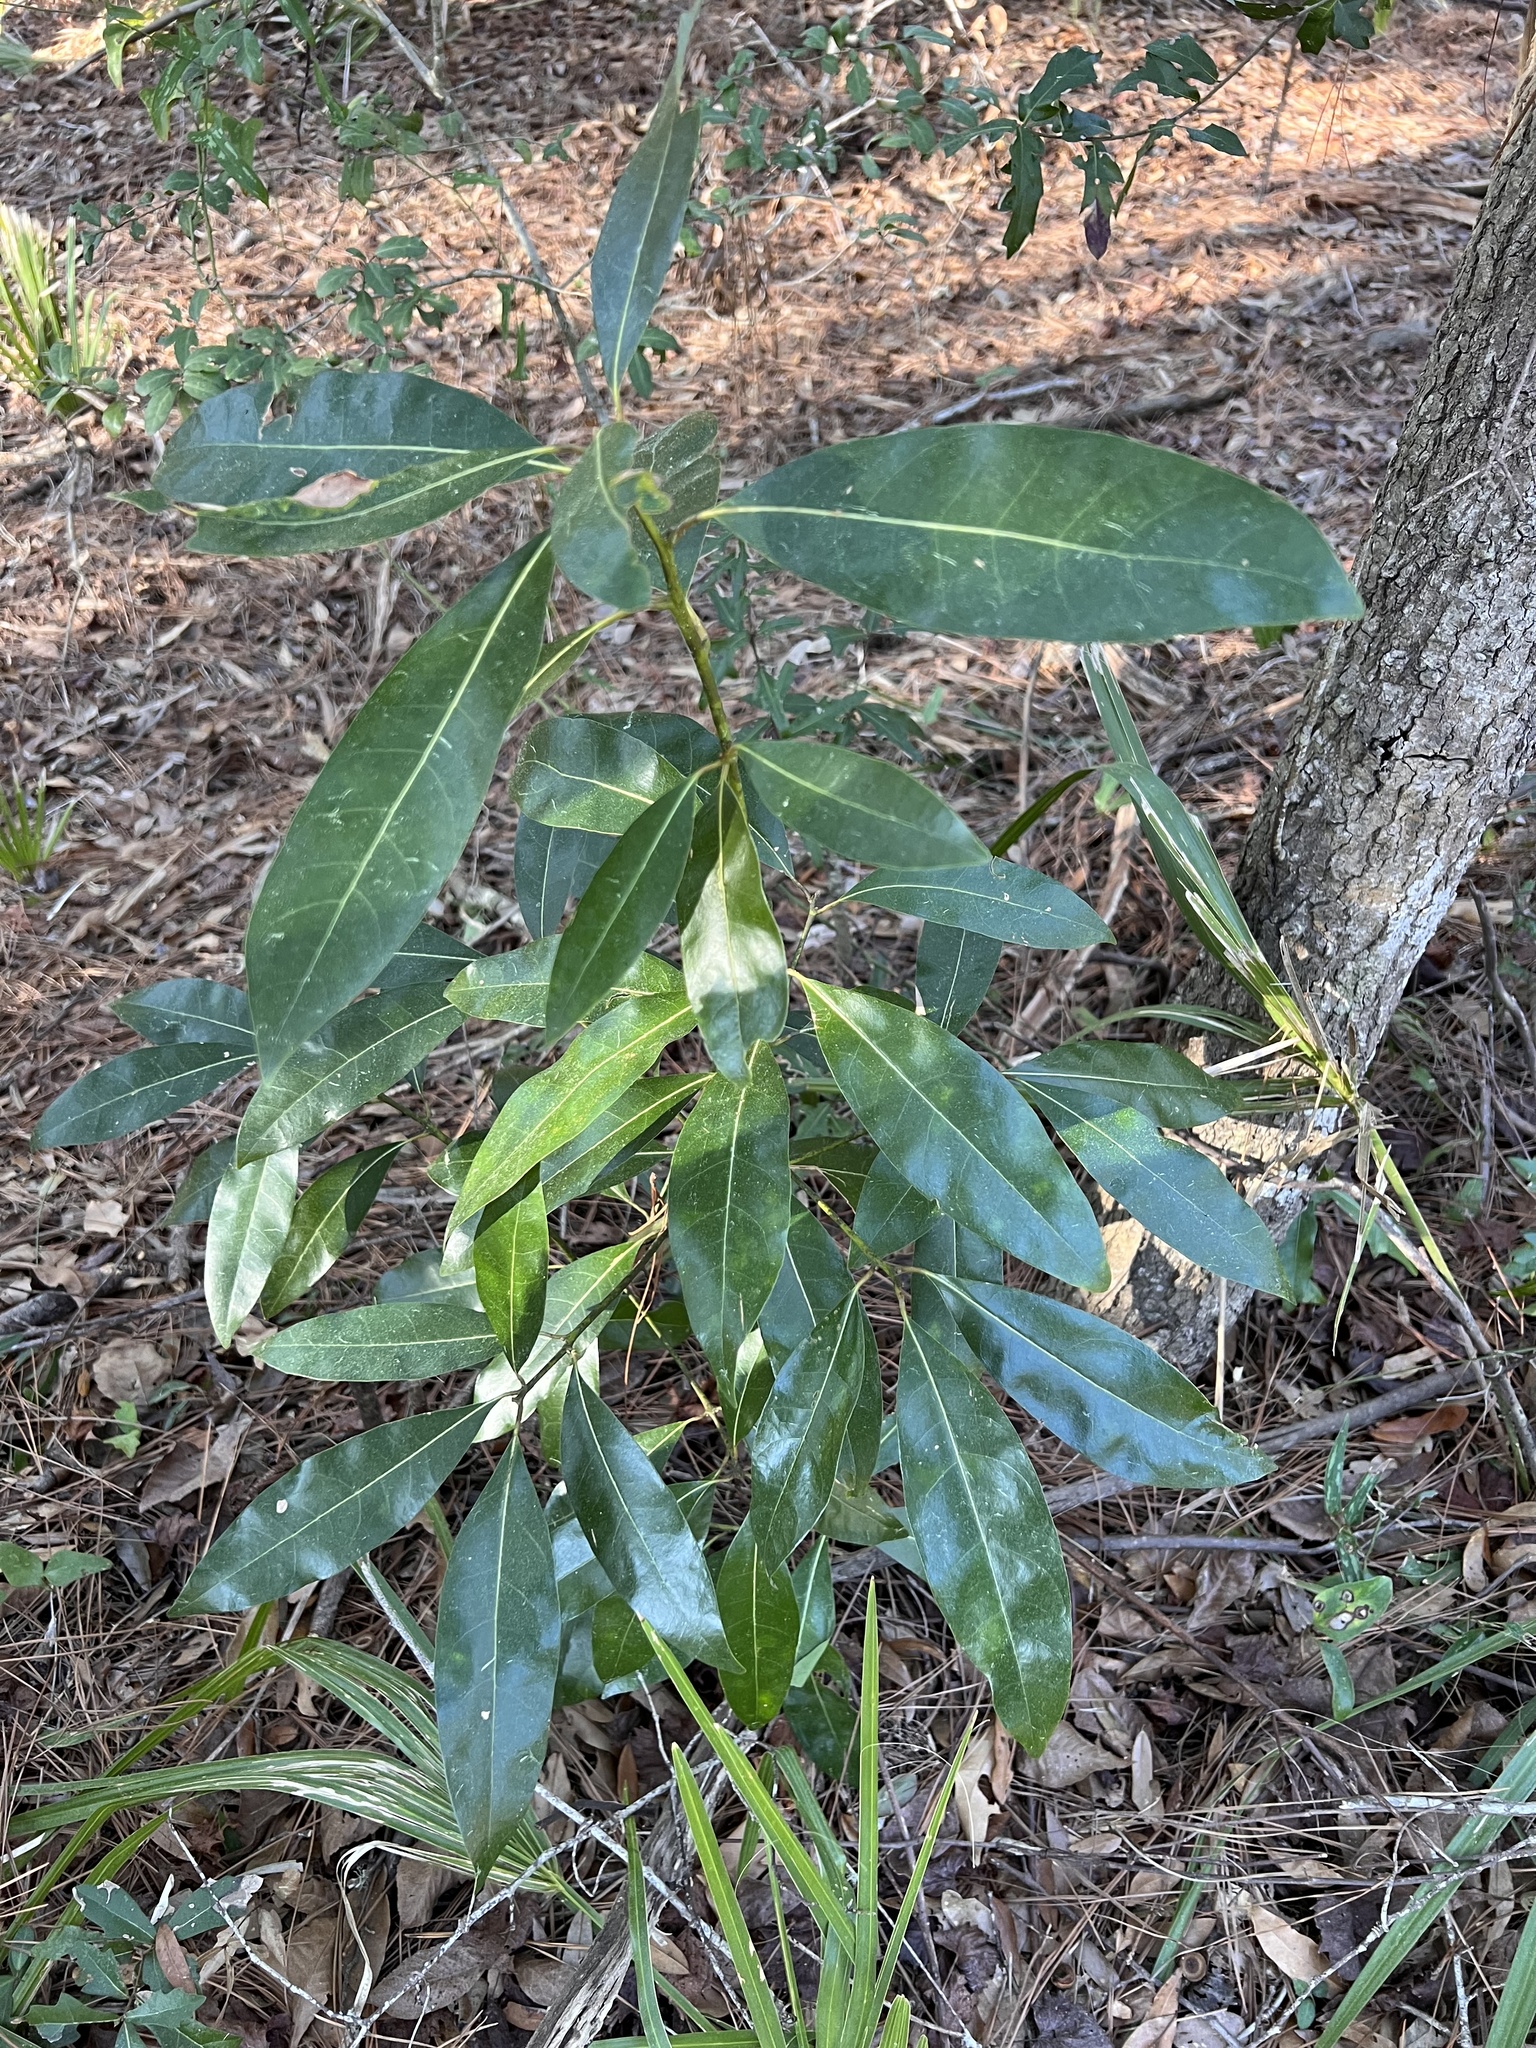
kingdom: Plantae
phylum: Tracheophyta
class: Magnoliopsida
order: Magnoliales
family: Magnoliaceae
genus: Magnolia
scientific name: Magnolia virginiana
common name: Swamp bay
